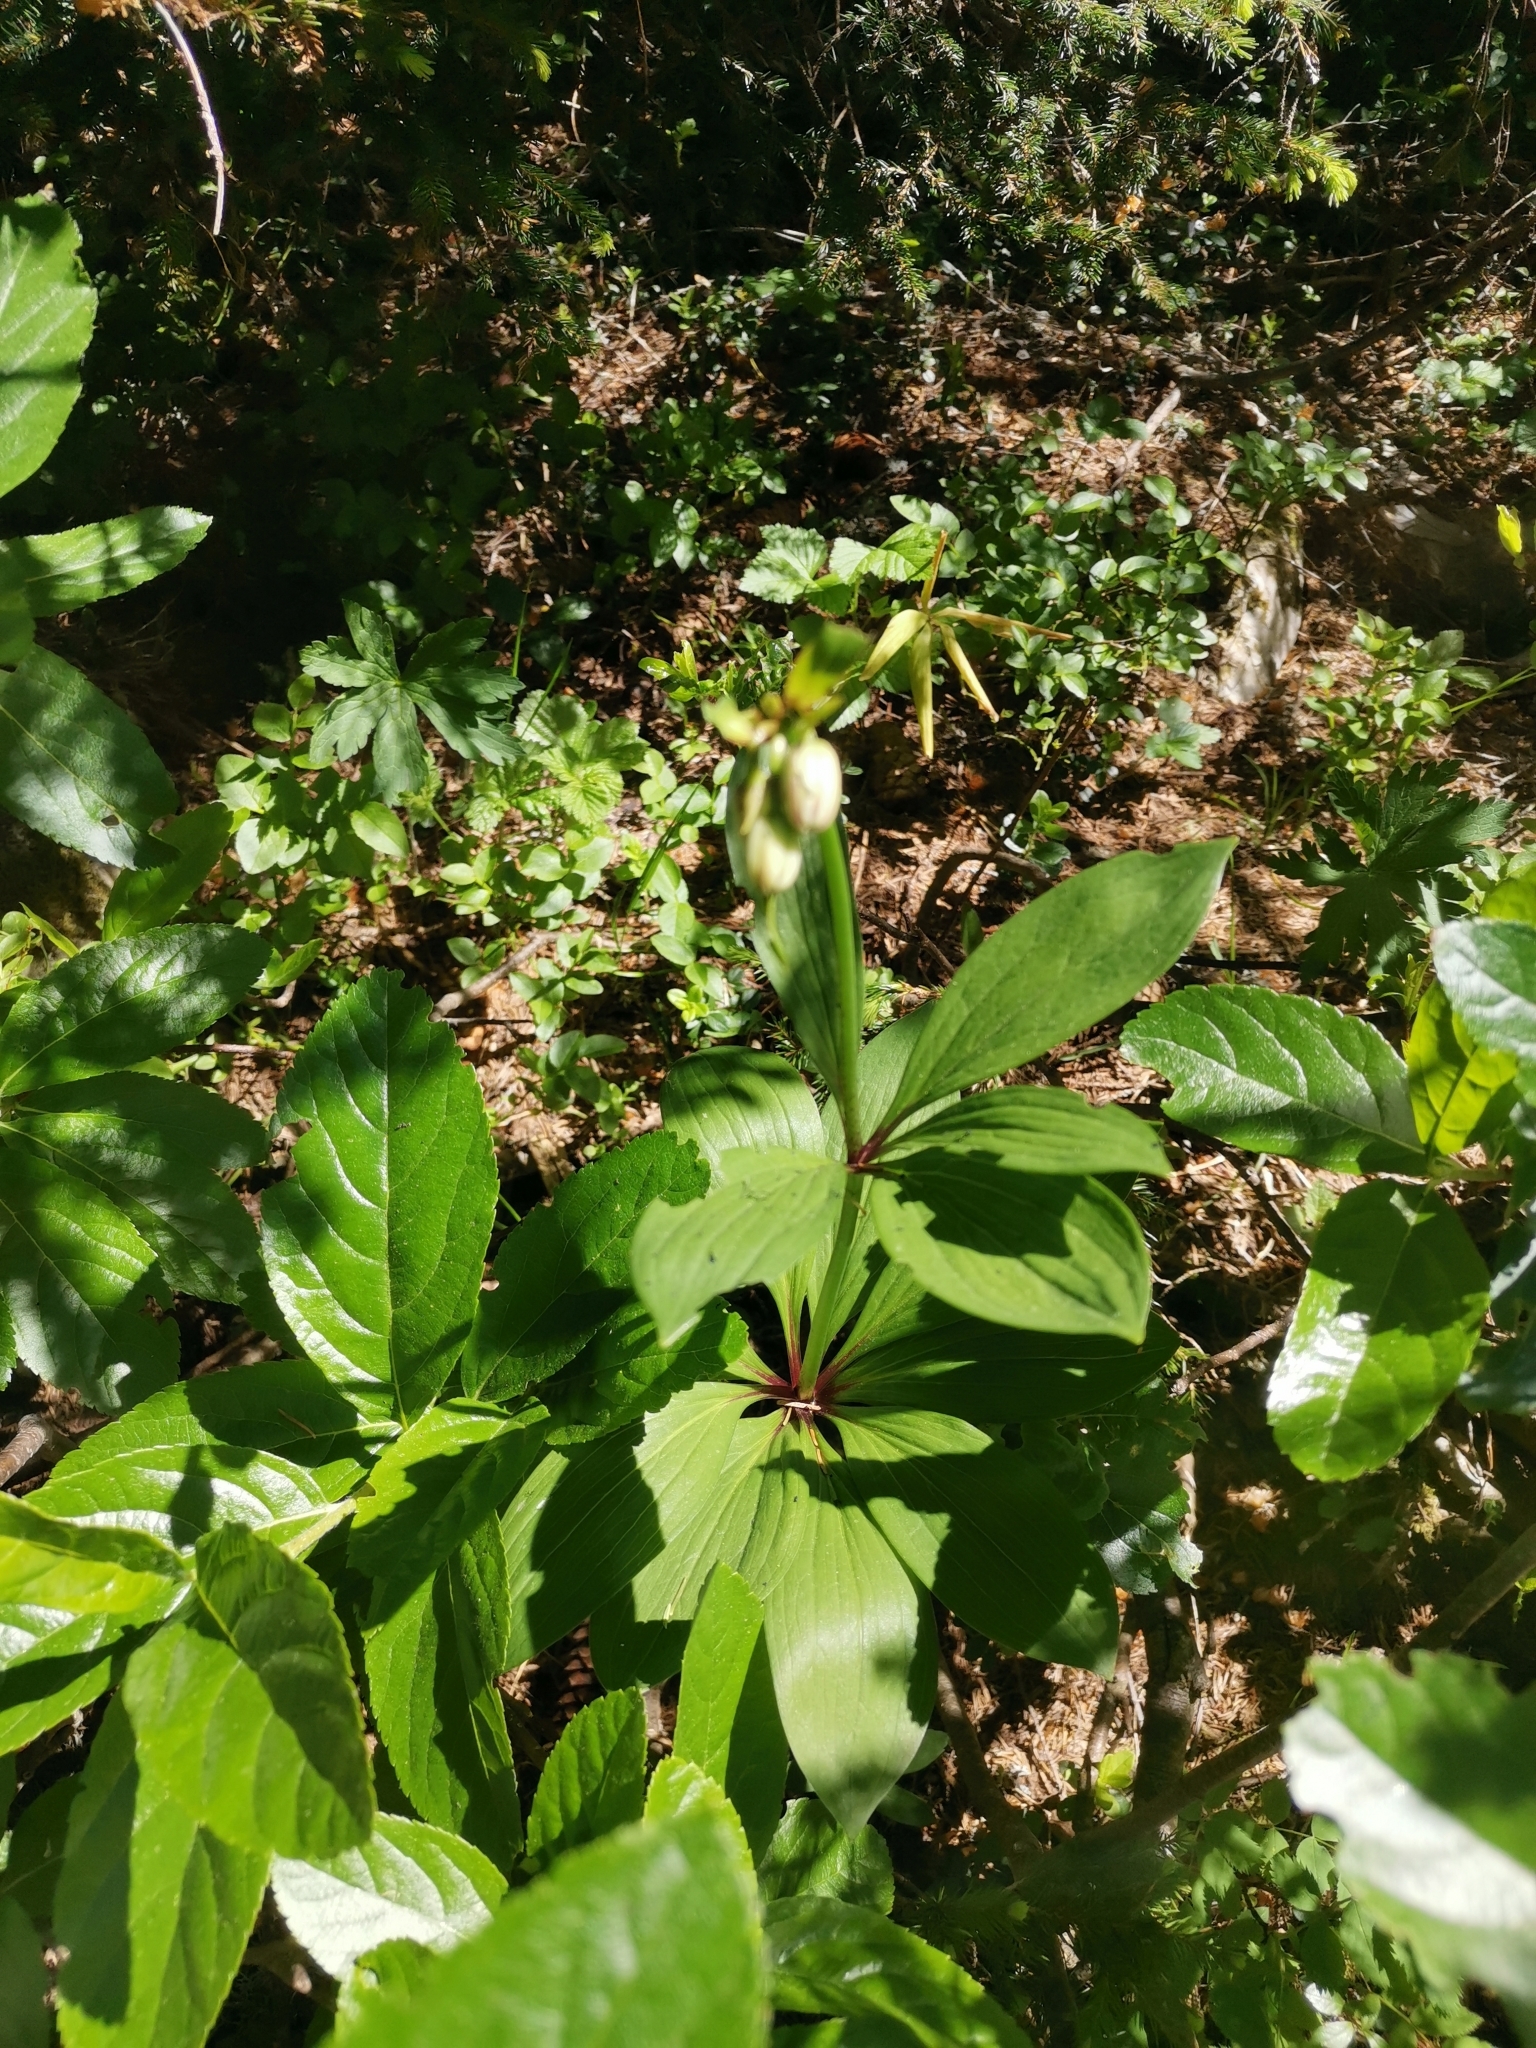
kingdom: Plantae
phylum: Tracheophyta
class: Liliopsida
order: Liliales
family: Liliaceae
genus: Lilium
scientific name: Lilium martagon
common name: Martagon lily
